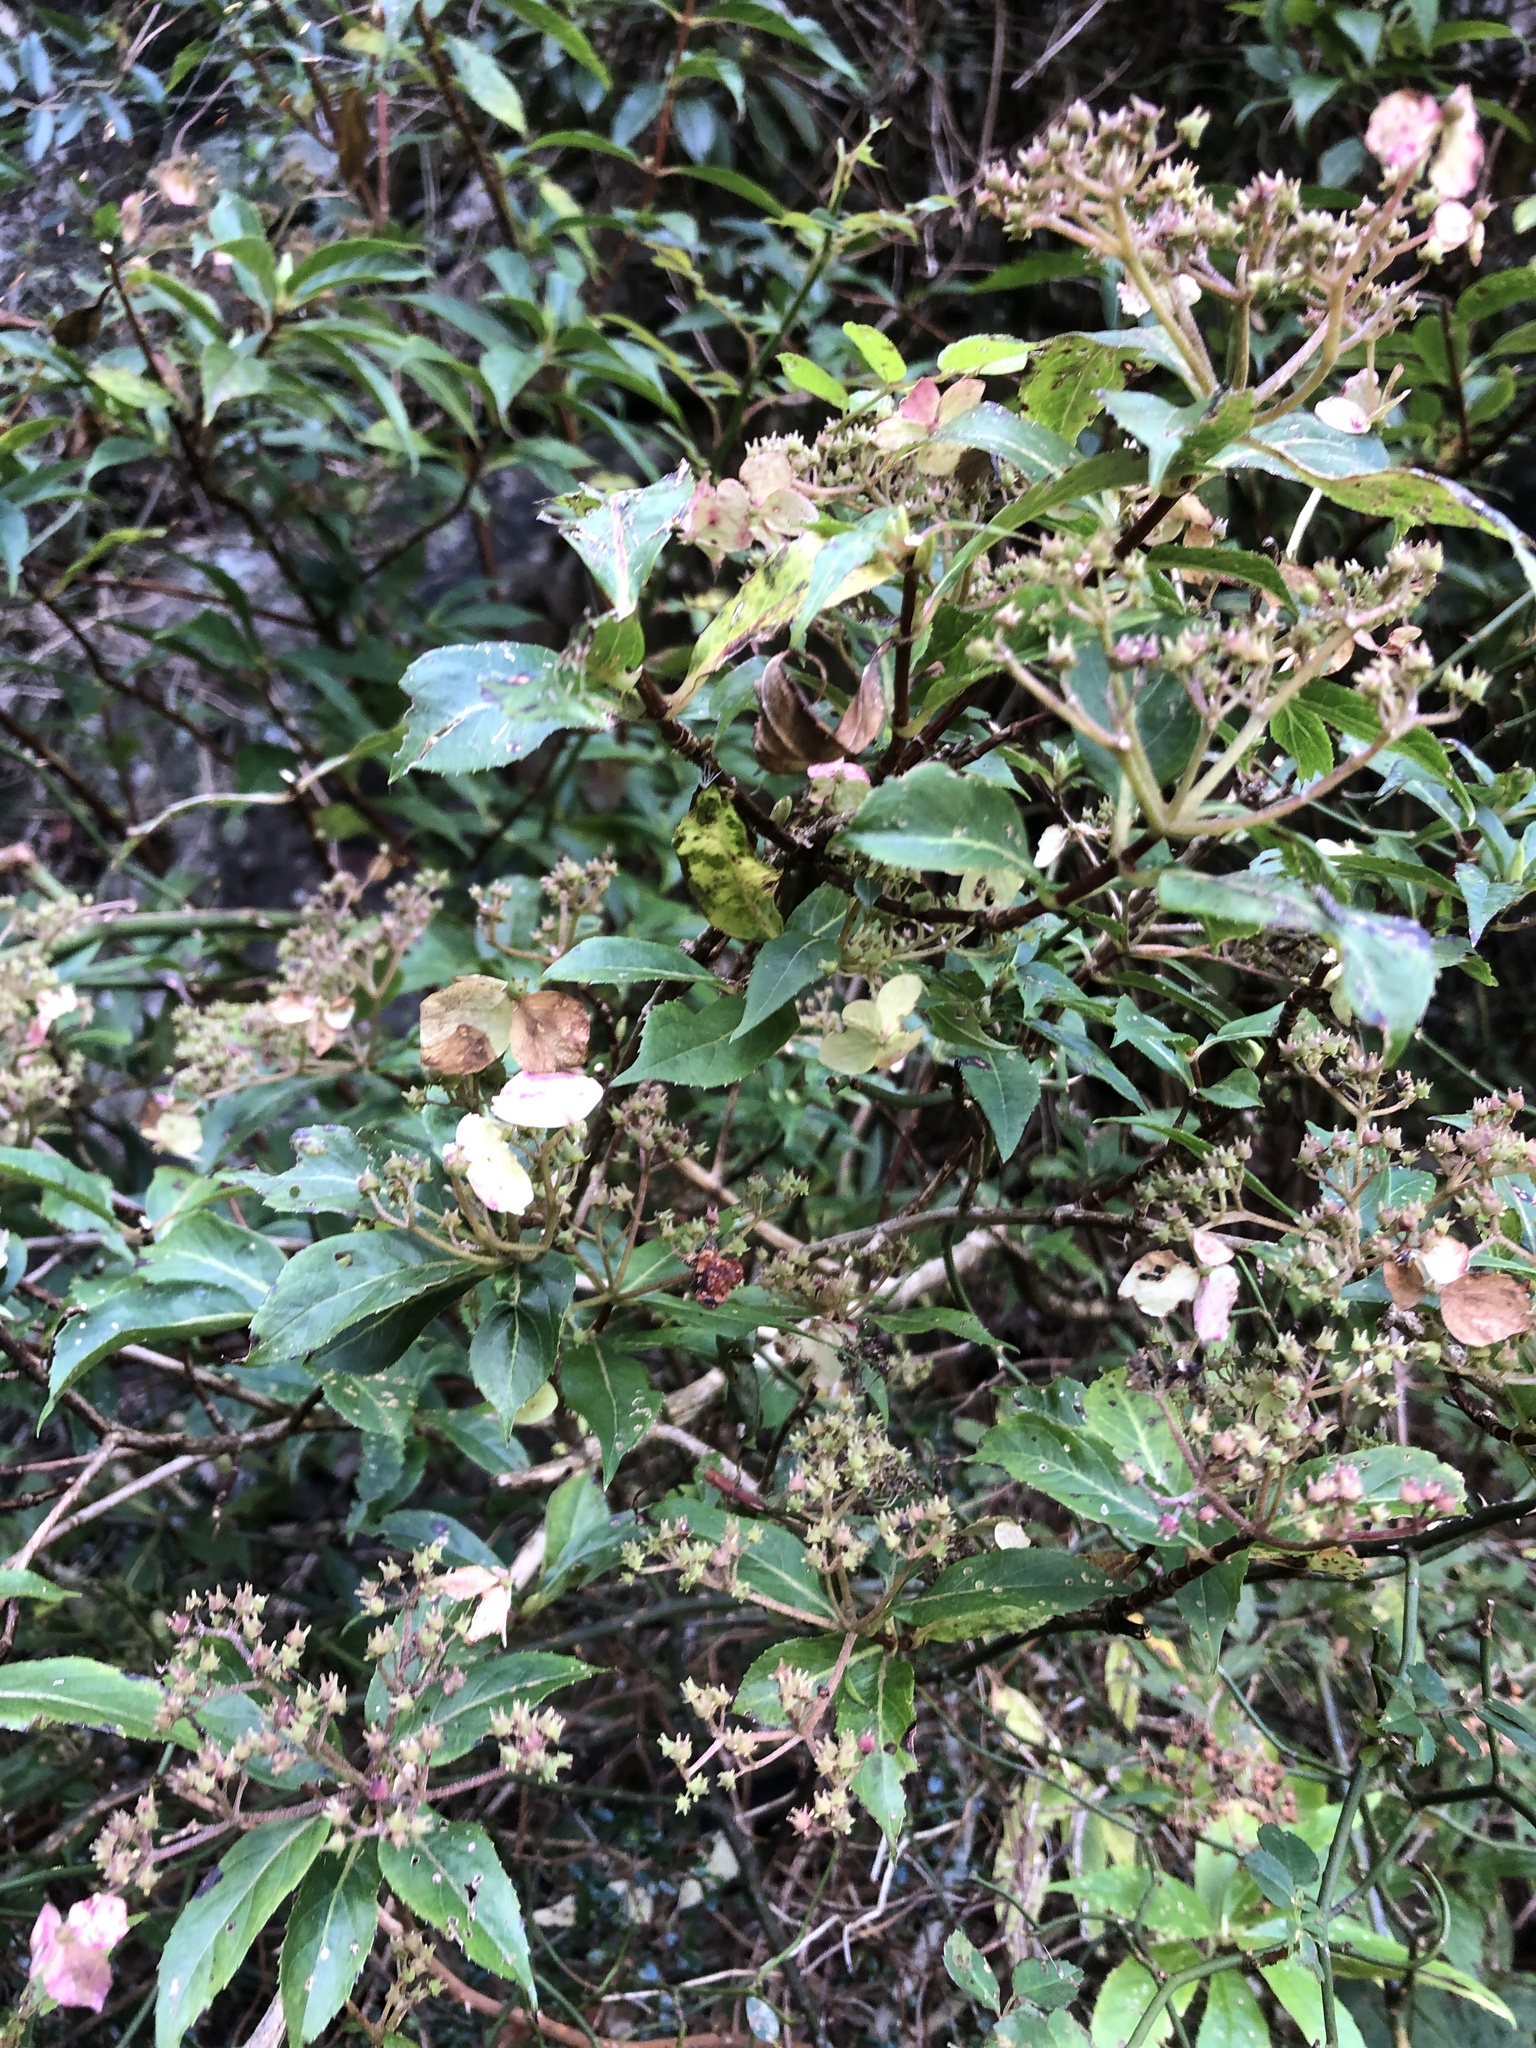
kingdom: Plantae
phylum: Tracheophyta
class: Magnoliopsida
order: Cornales
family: Hydrangeaceae
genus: Hydrangea
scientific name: Hydrangea chinensis
